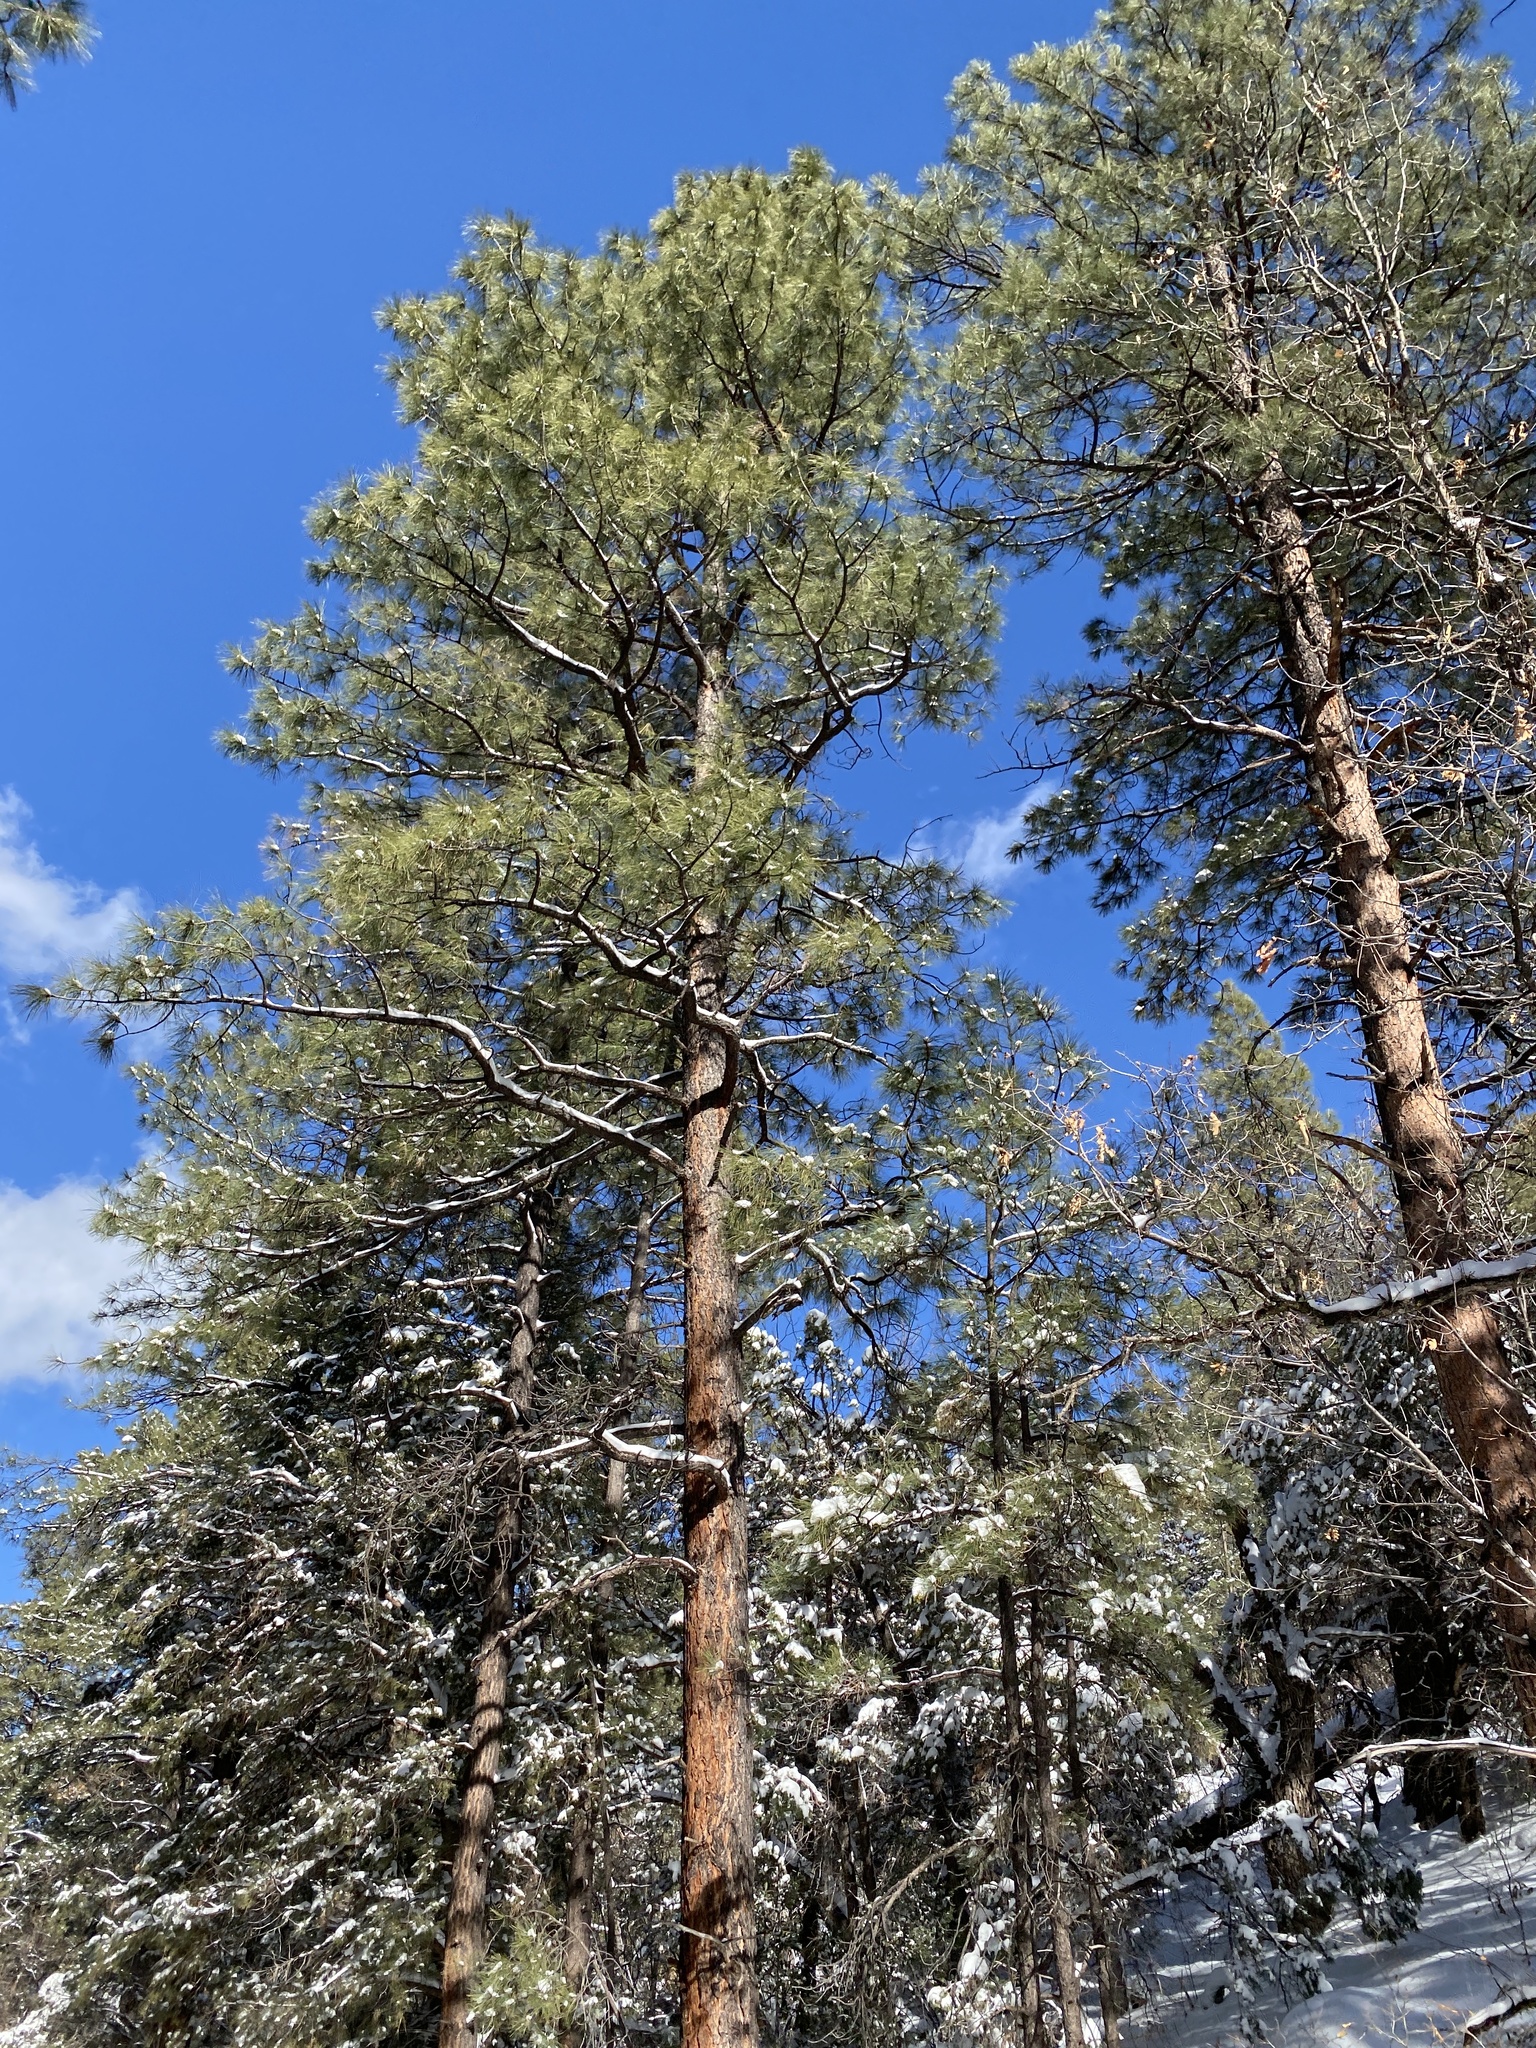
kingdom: Plantae
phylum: Tracheophyta
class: Pinopsida
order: Pinales
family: Pinaceae
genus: Pinus
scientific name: Pinus ponderosa
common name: Western yellow-pine
